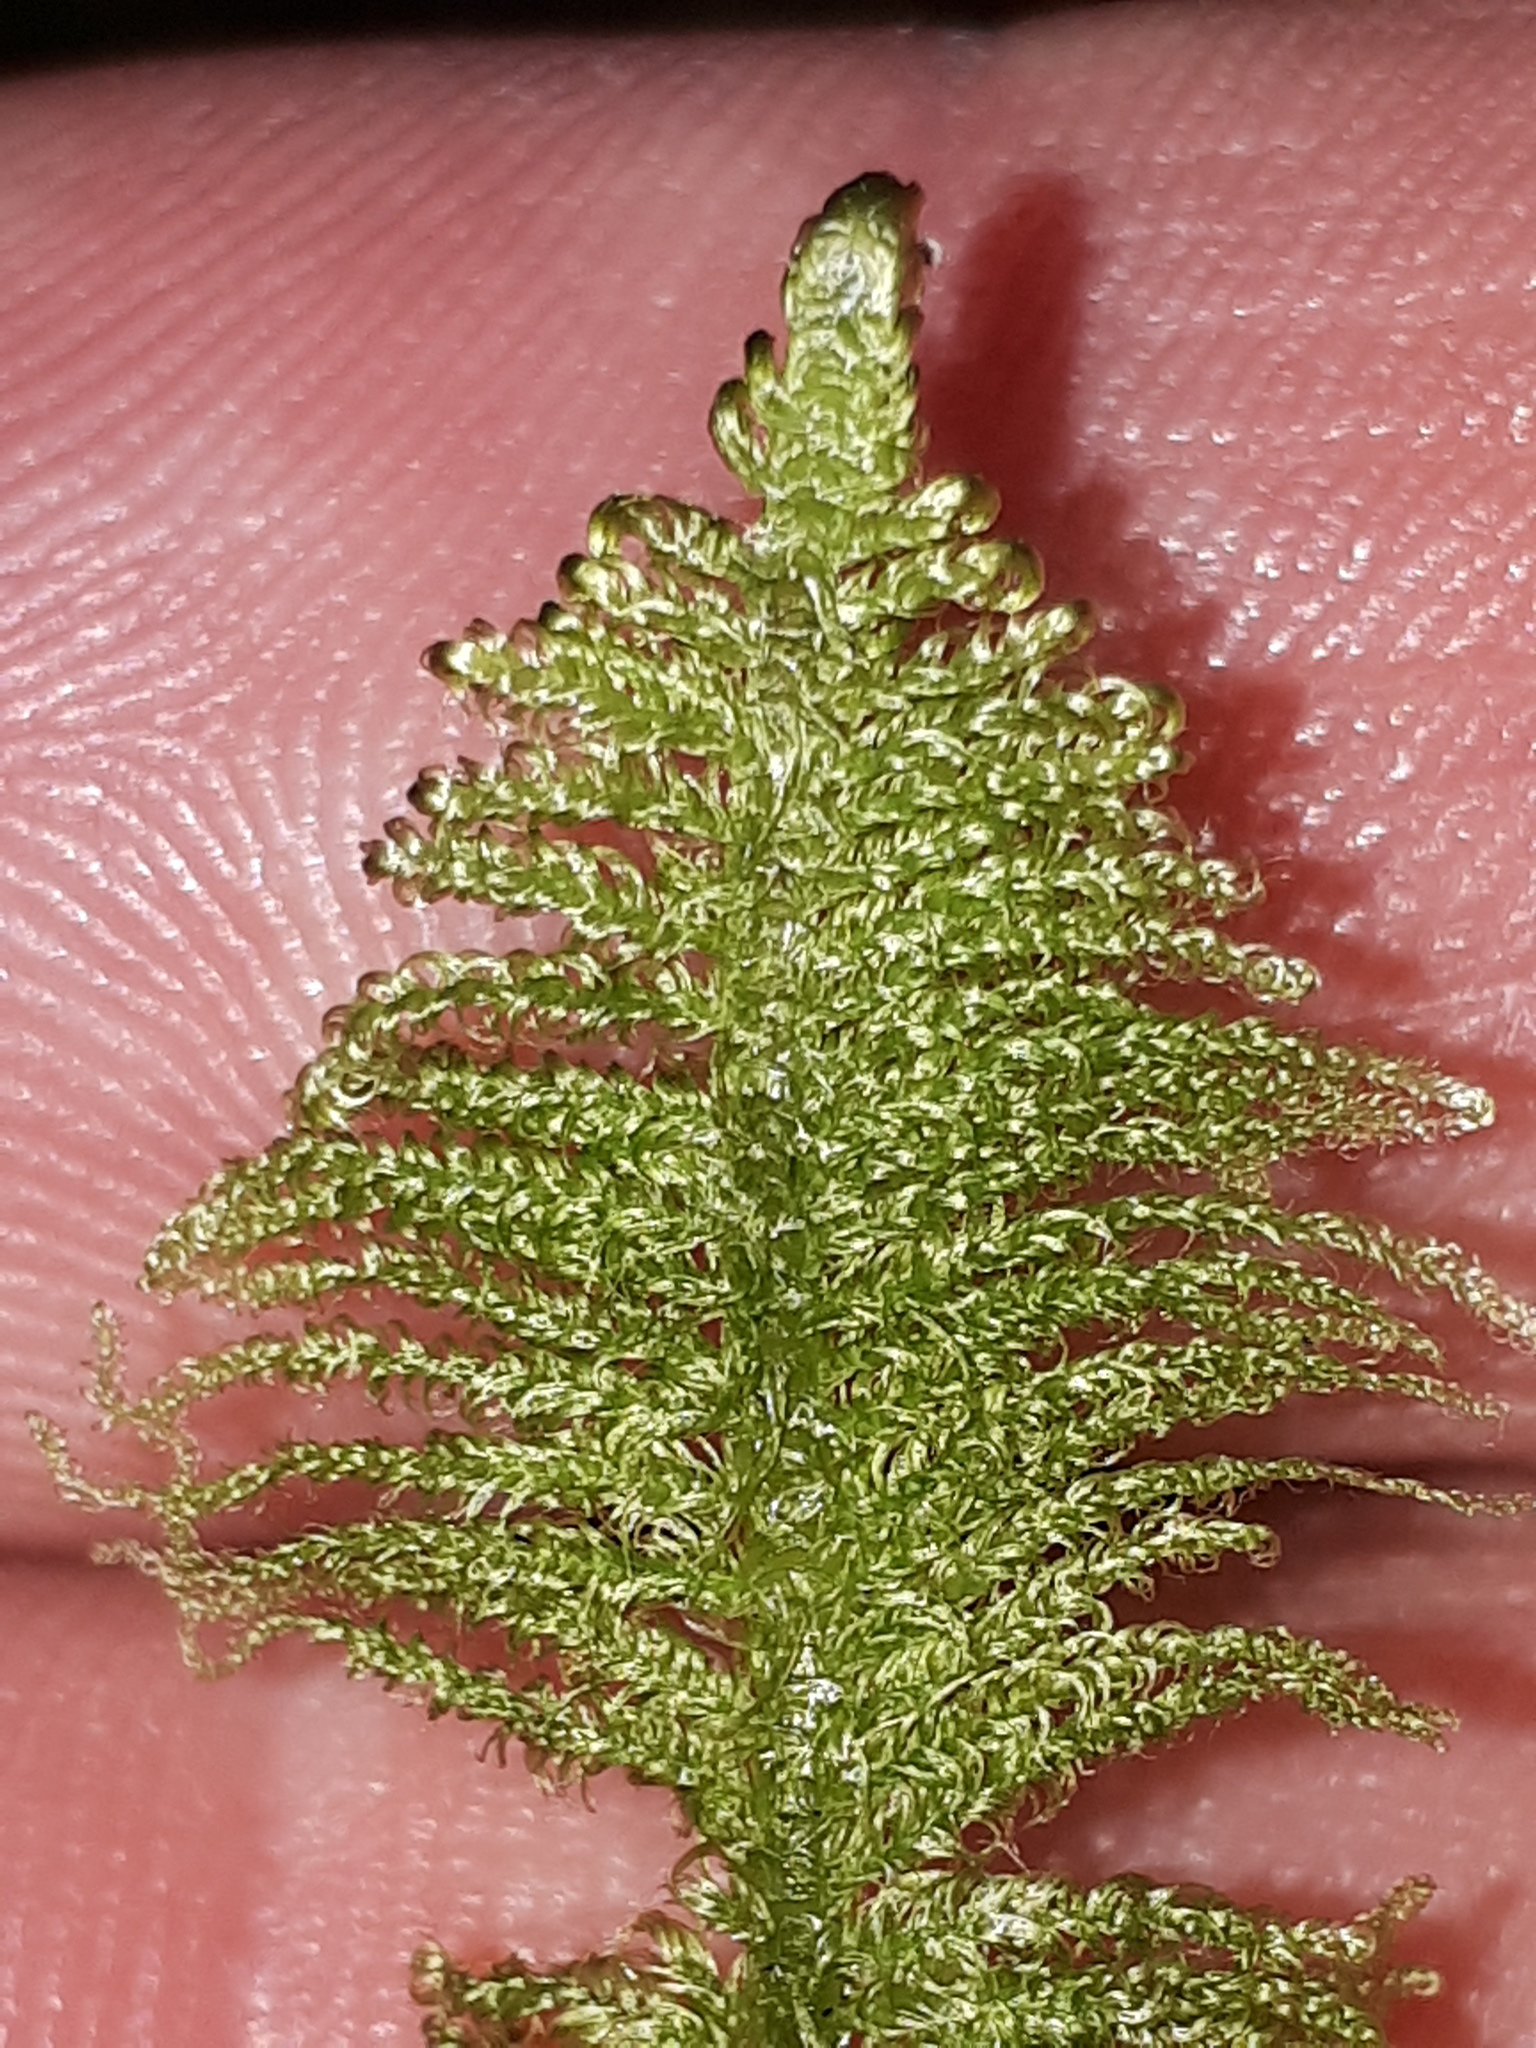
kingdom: Plantae
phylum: Bryophyta
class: Bryopsida
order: Hypnales
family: Pylaisiaceae
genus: Ptilium
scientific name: Ptilium crista-castrensis
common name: Knight's plume moss
